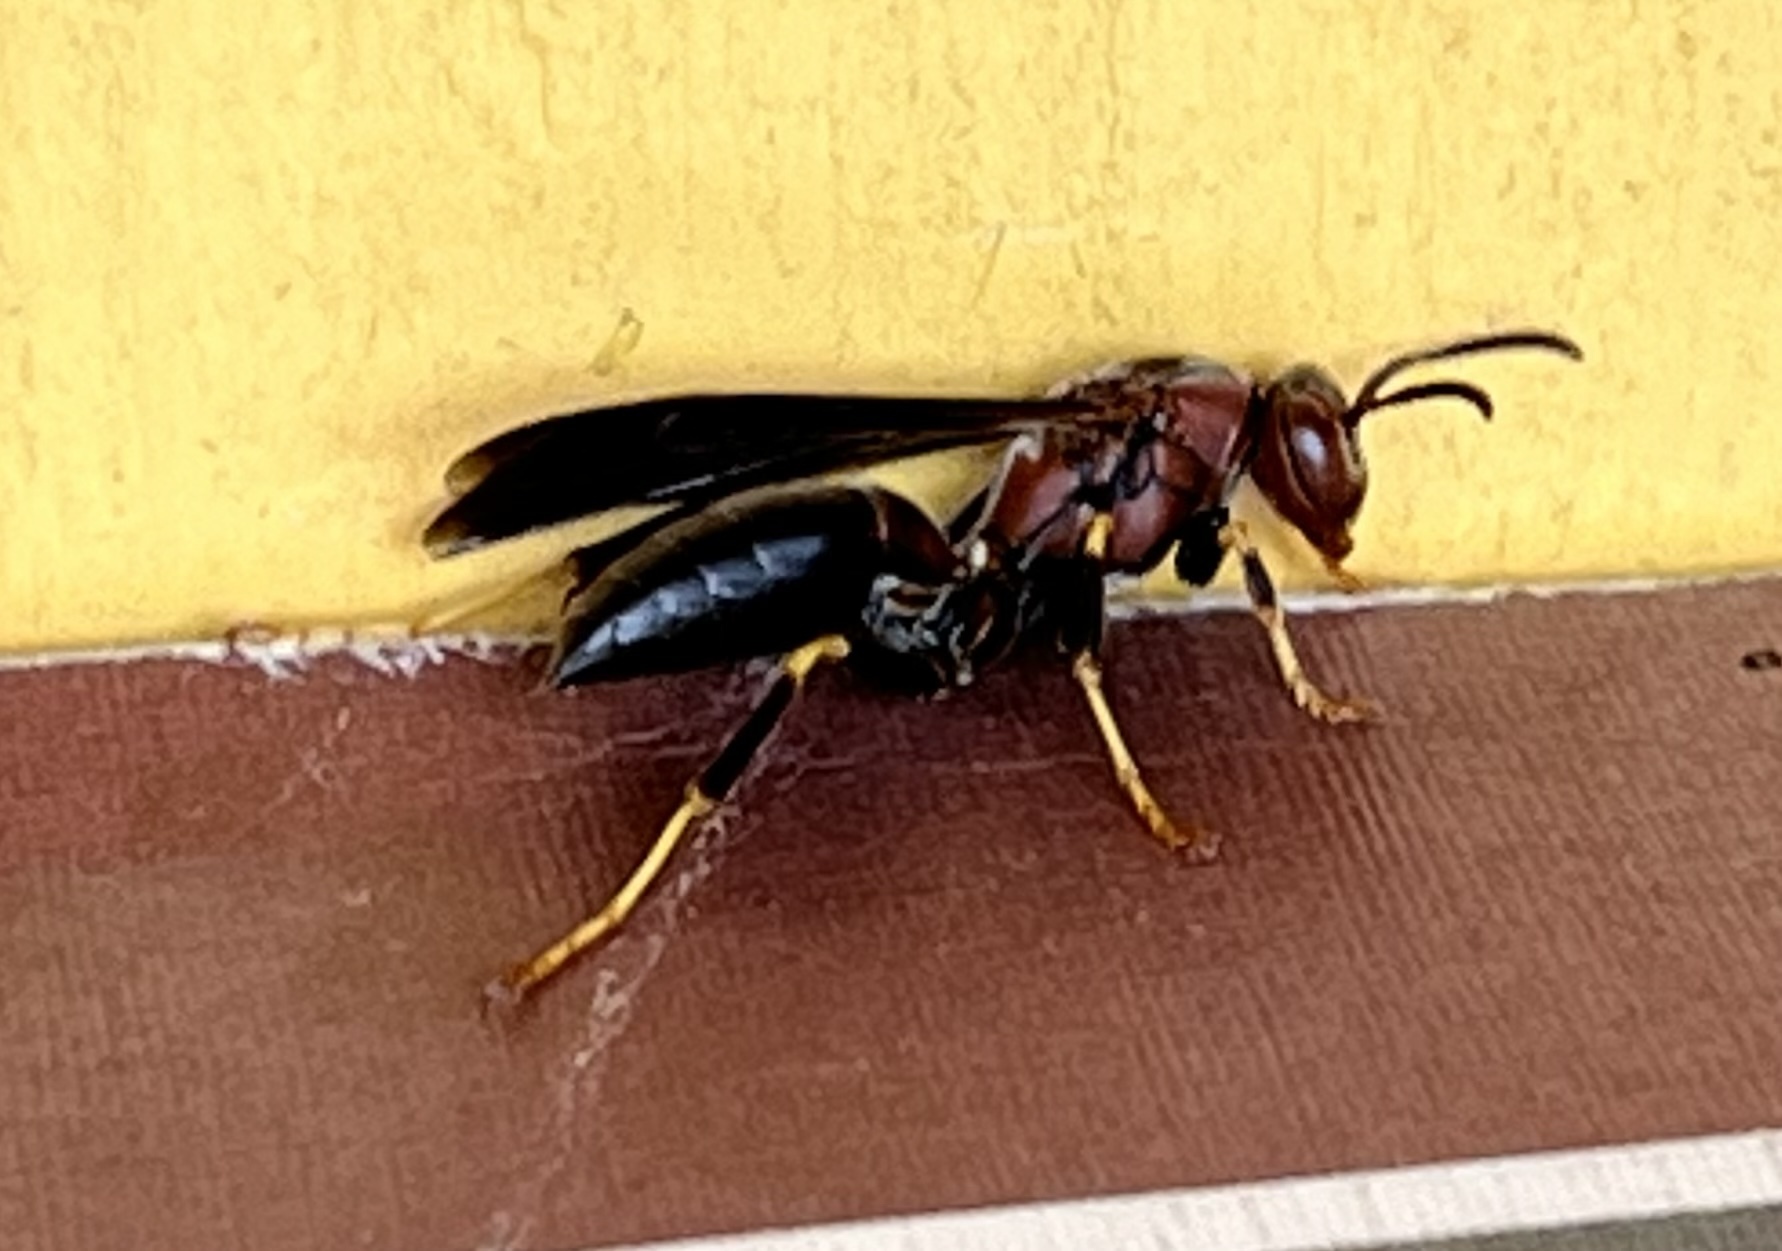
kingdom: Animalia
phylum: Arthropoda
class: Insecta
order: Hymenoptera
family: Eumenidae
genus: Polistes
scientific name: Polistes metricus
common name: Metric paper wasp
